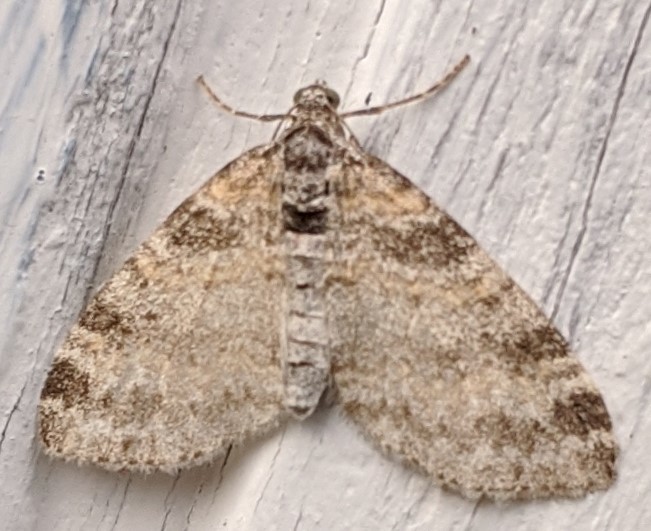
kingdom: Animalia
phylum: Arthropoda
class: Insecta
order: Lepidoptera
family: Geometridae
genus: Lobophora
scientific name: Lobophora nivigerata
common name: Powdered bigwing
